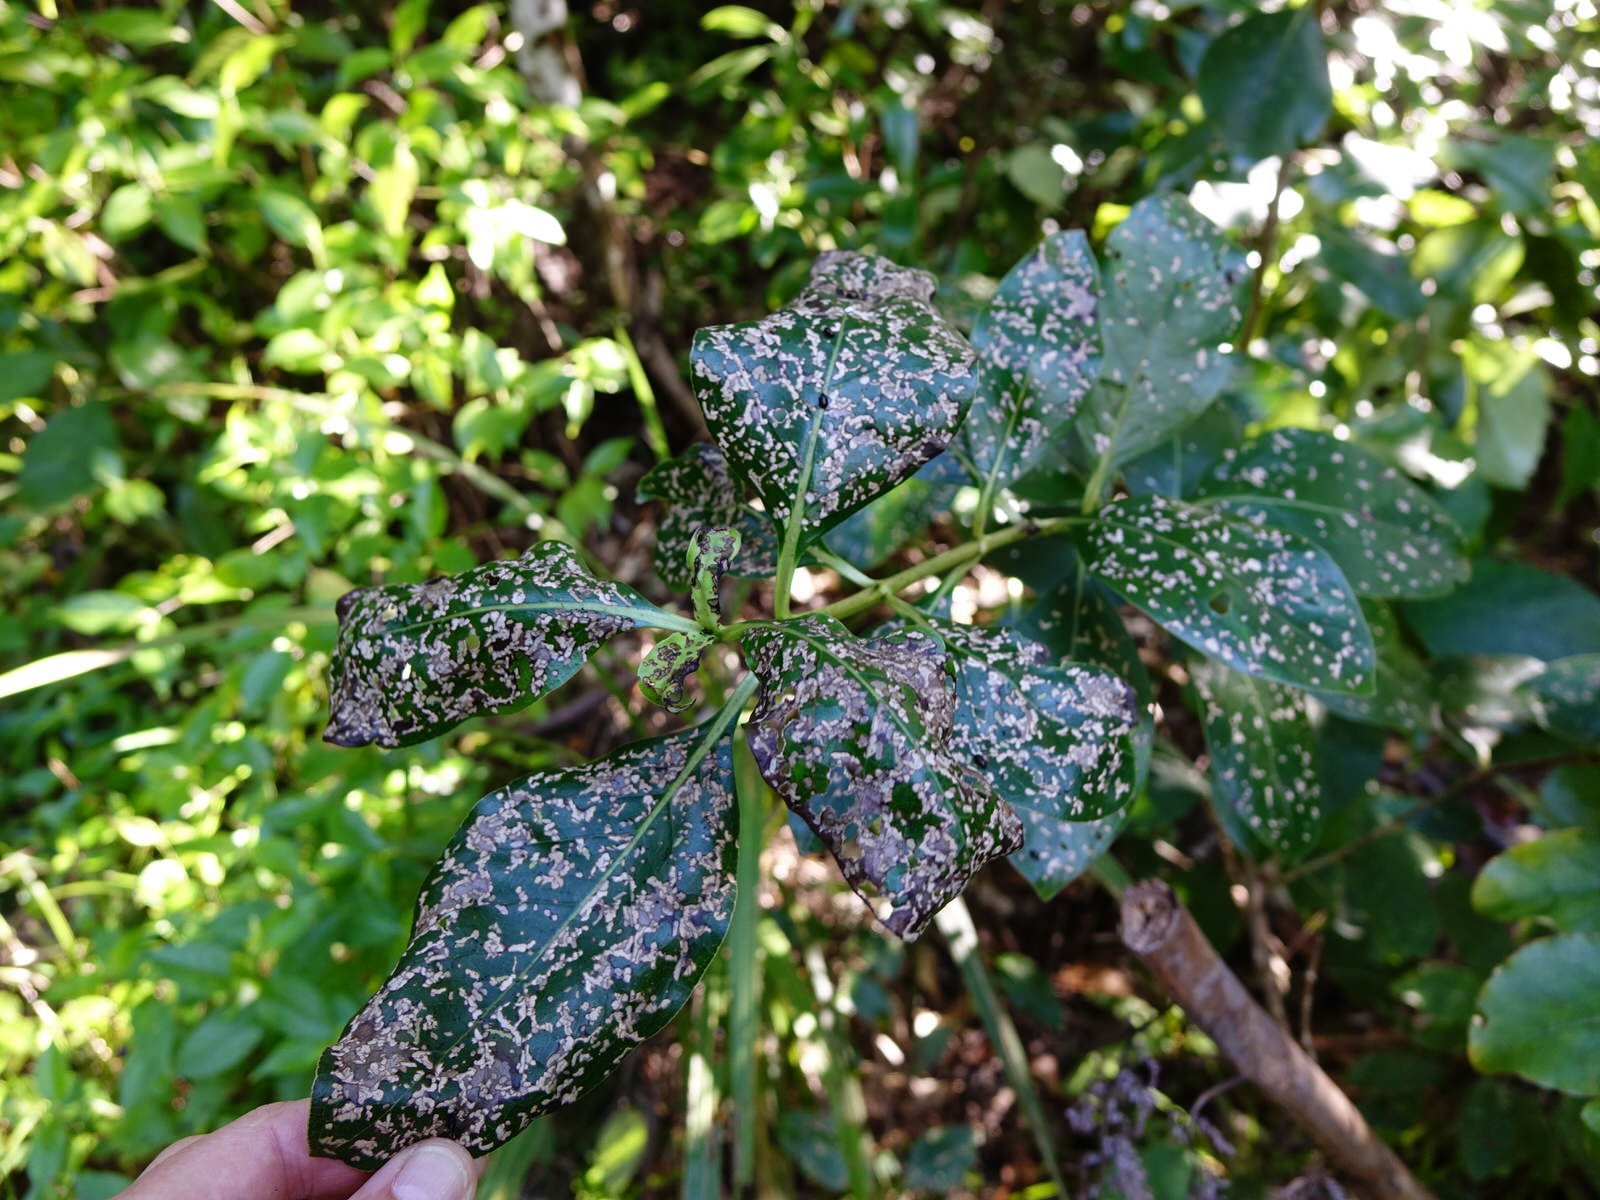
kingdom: Animalia
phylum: Arthropoda
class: Insecta
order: Coleoptera
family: Chrysomelidae
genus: Pleuraltica
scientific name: Pleuraltica cyanea
